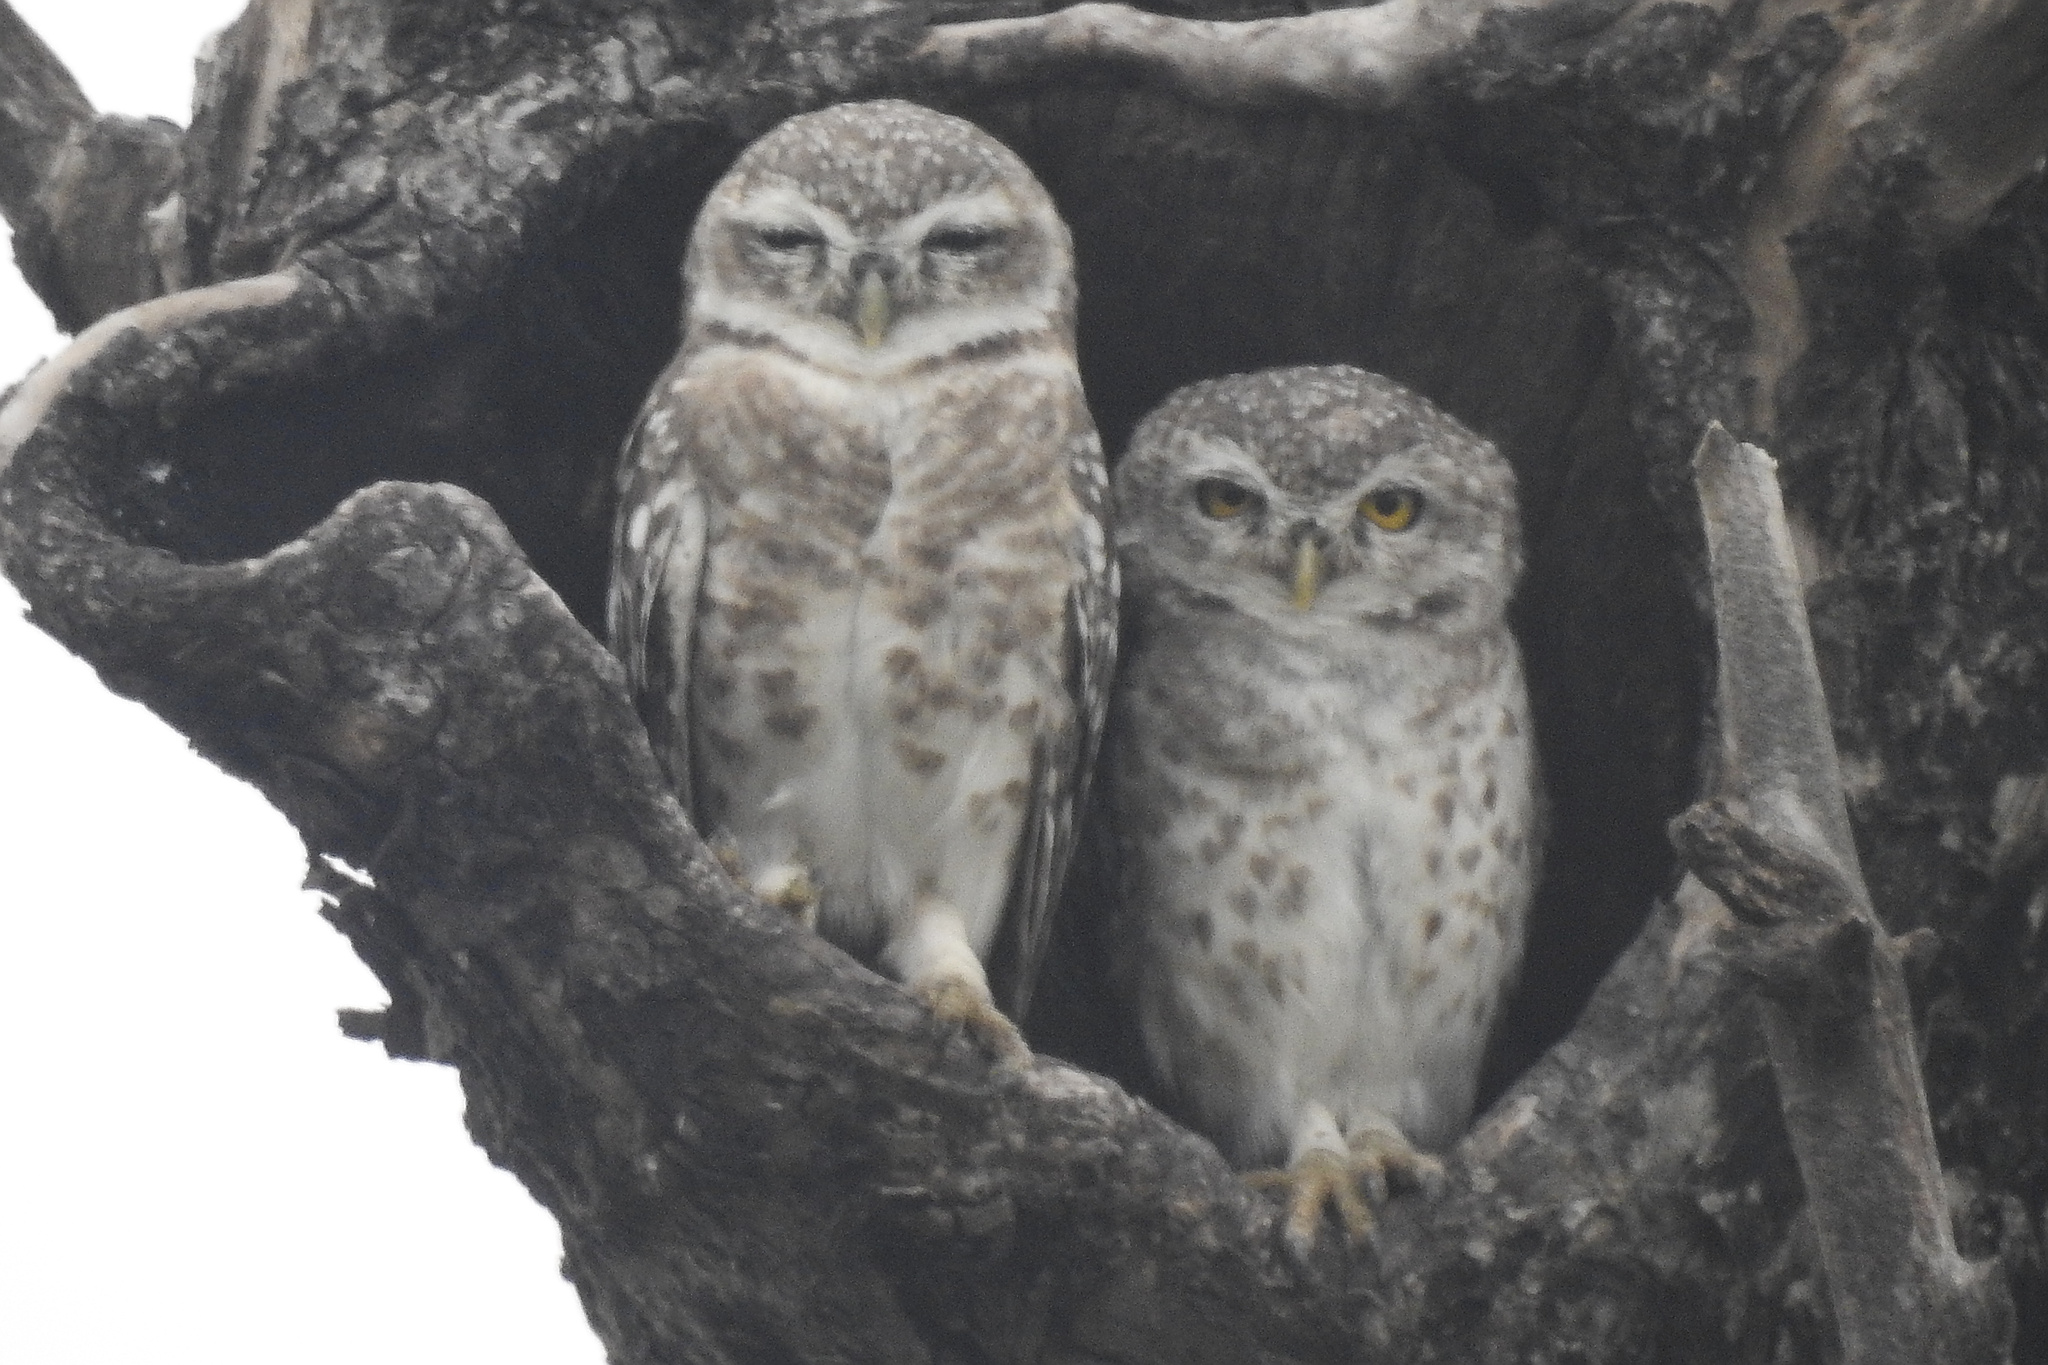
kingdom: Animalia
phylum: Chordata
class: Aves
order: Strigiformes
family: Strigidae
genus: Athene
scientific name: Athene brama
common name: Spotted owlet
